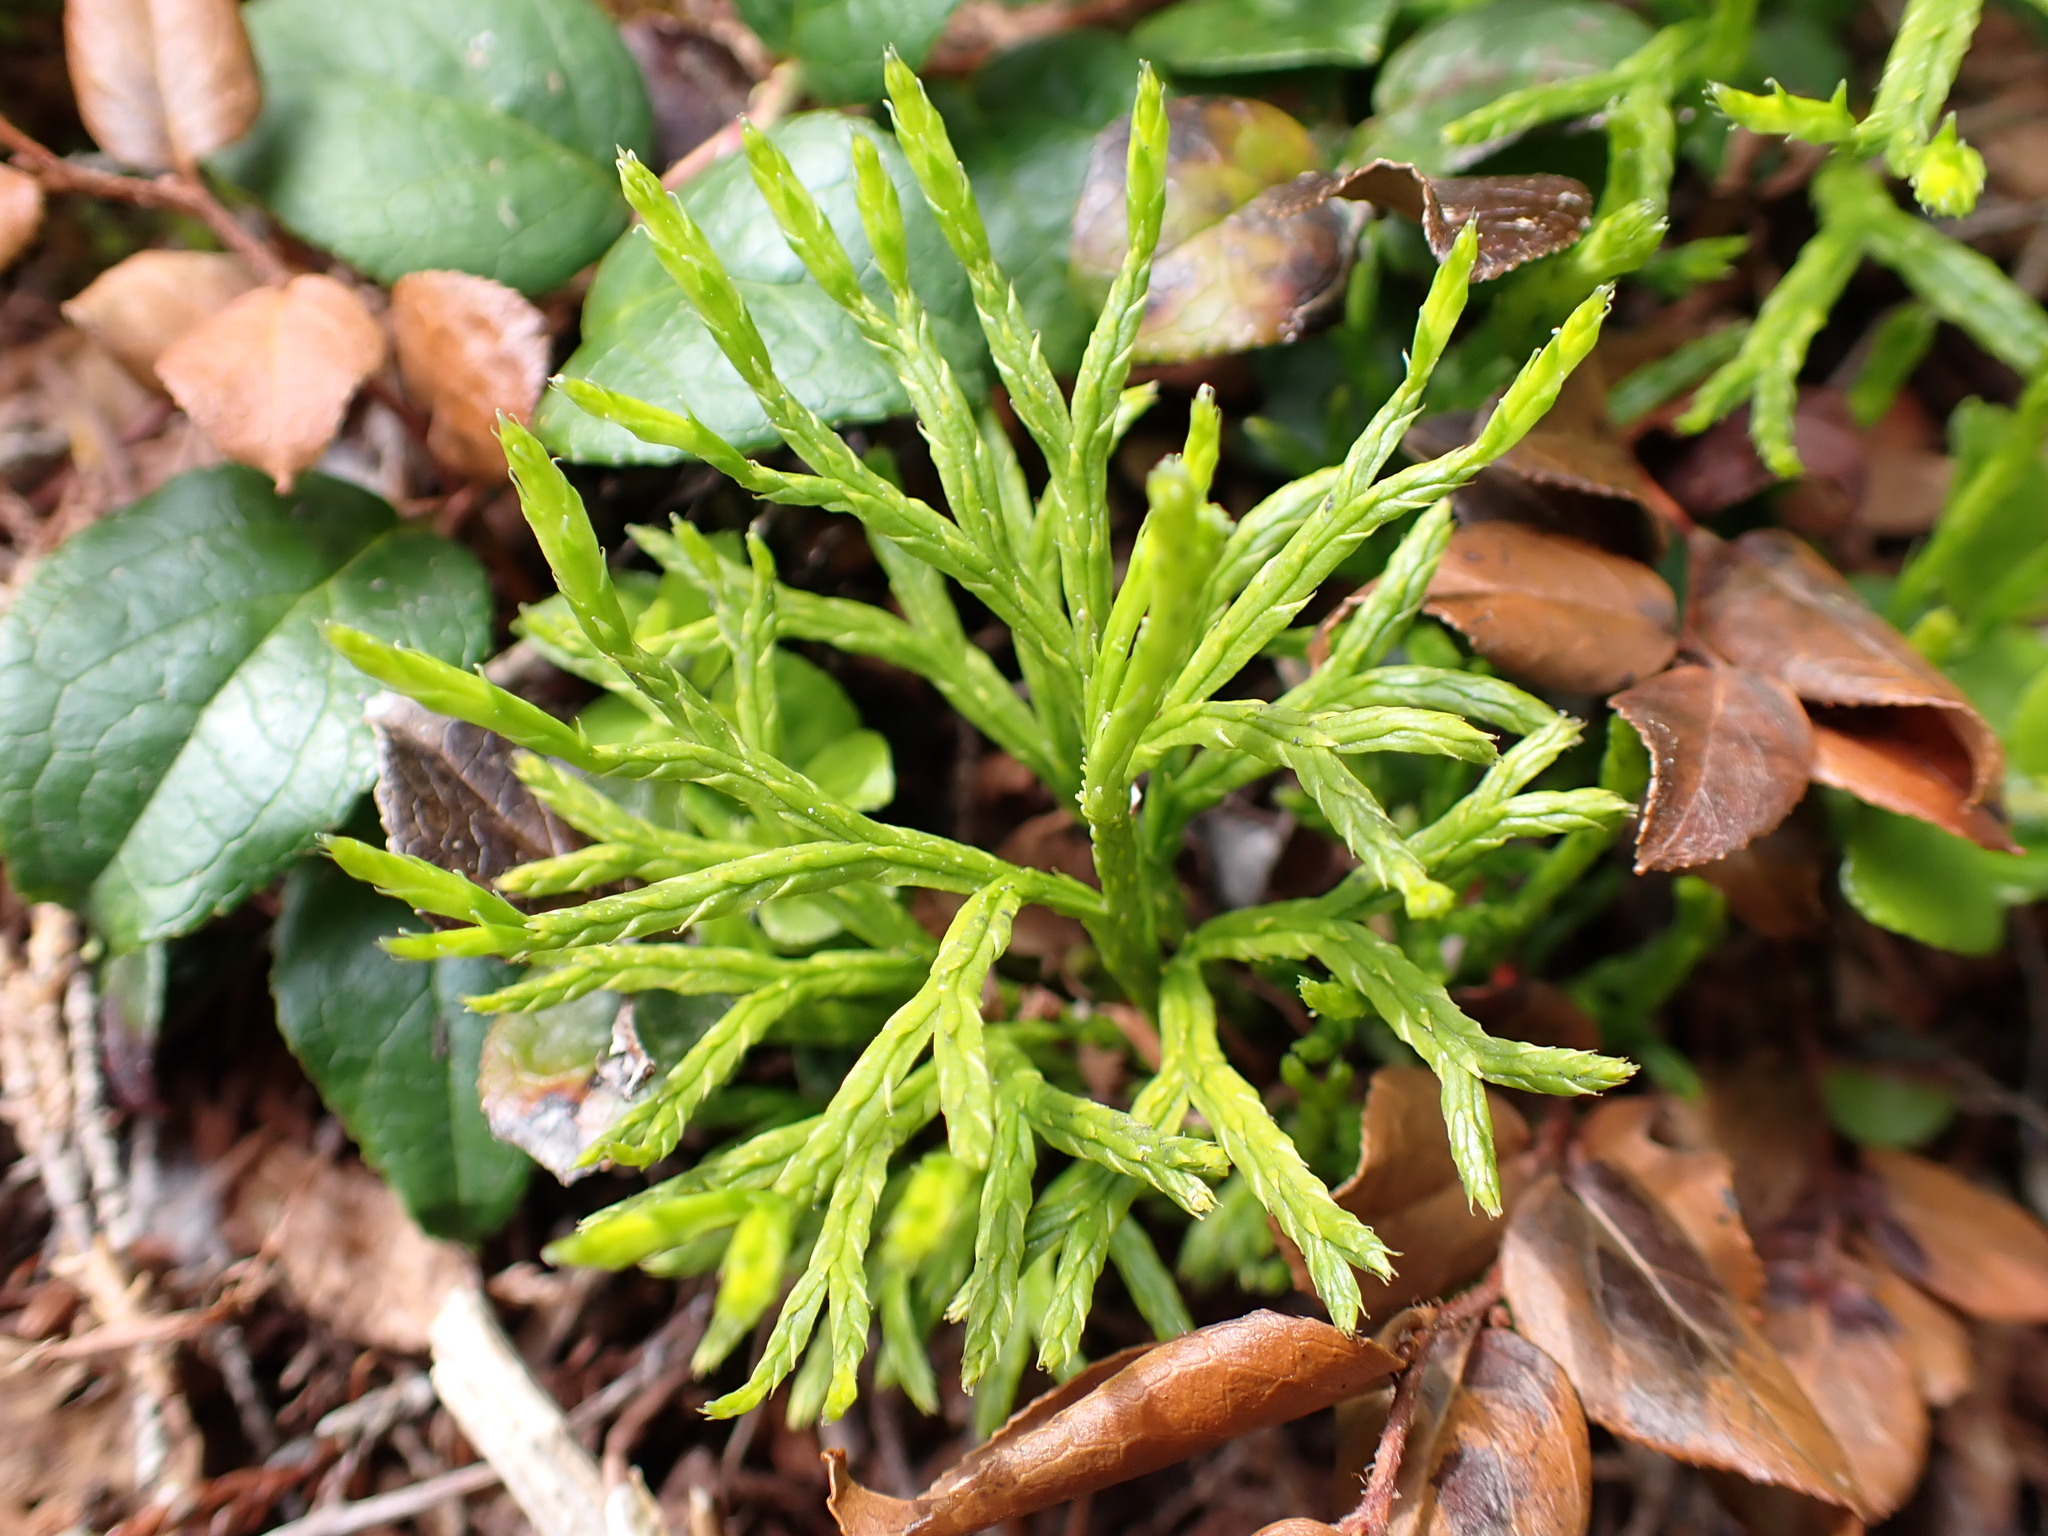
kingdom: Plantae
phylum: Tracheophyta
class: Lycopodiopsida
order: Lycopodiales
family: Lycopodiaceae
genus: Diphasiastrum
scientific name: Diphasiastrum complanatum
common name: Northern running-pine
